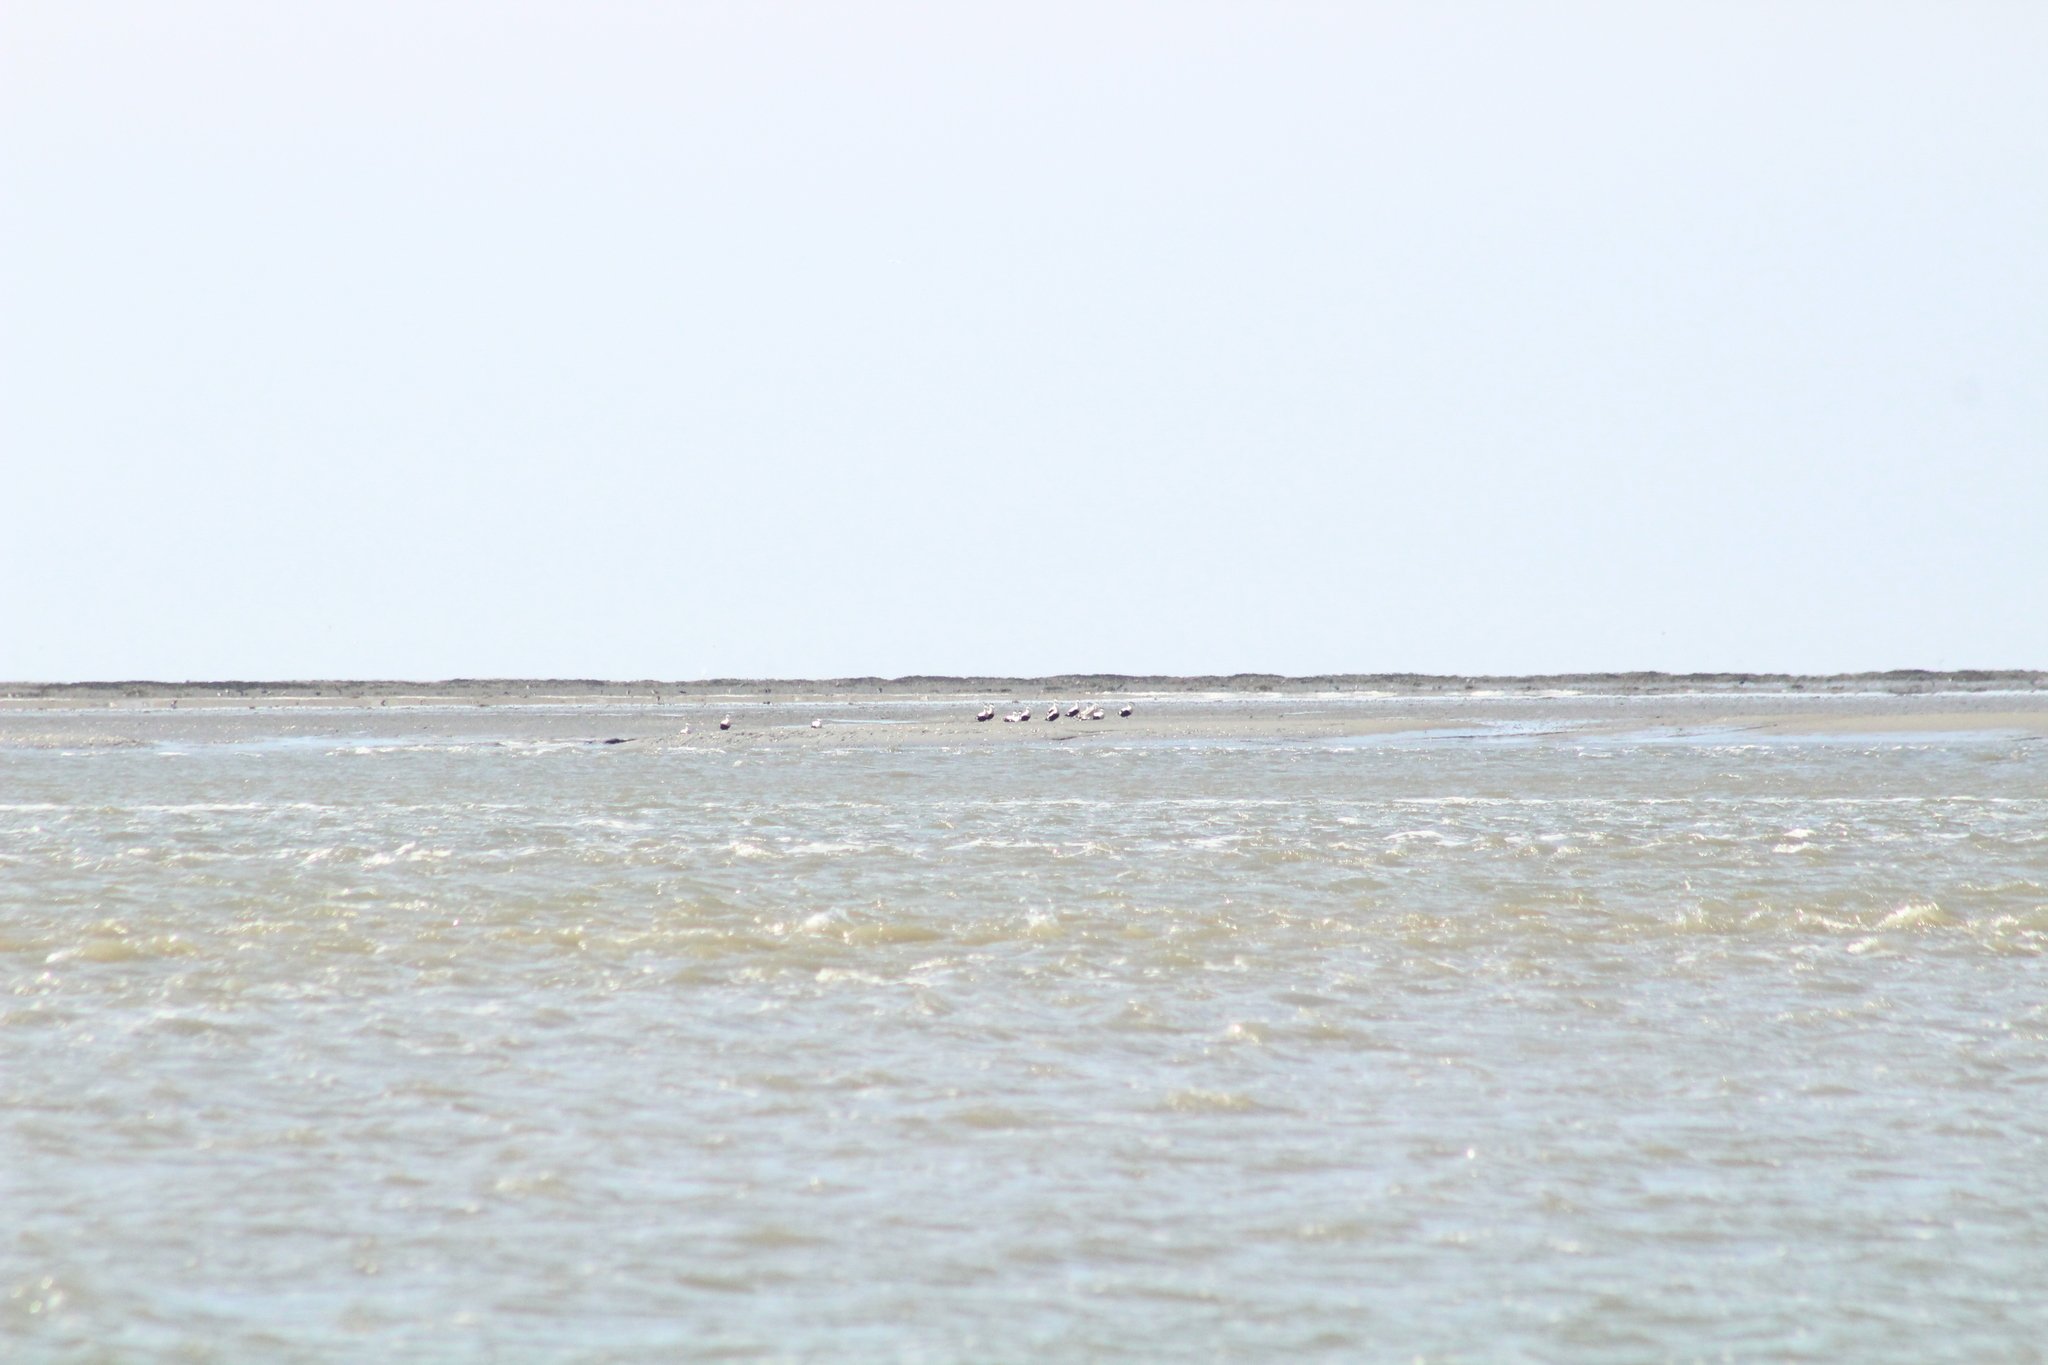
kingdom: Animalia
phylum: Chordata
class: Aves
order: Anseriformes
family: Anatidae
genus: Somateria
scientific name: Somateria mollissima
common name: Common eider
